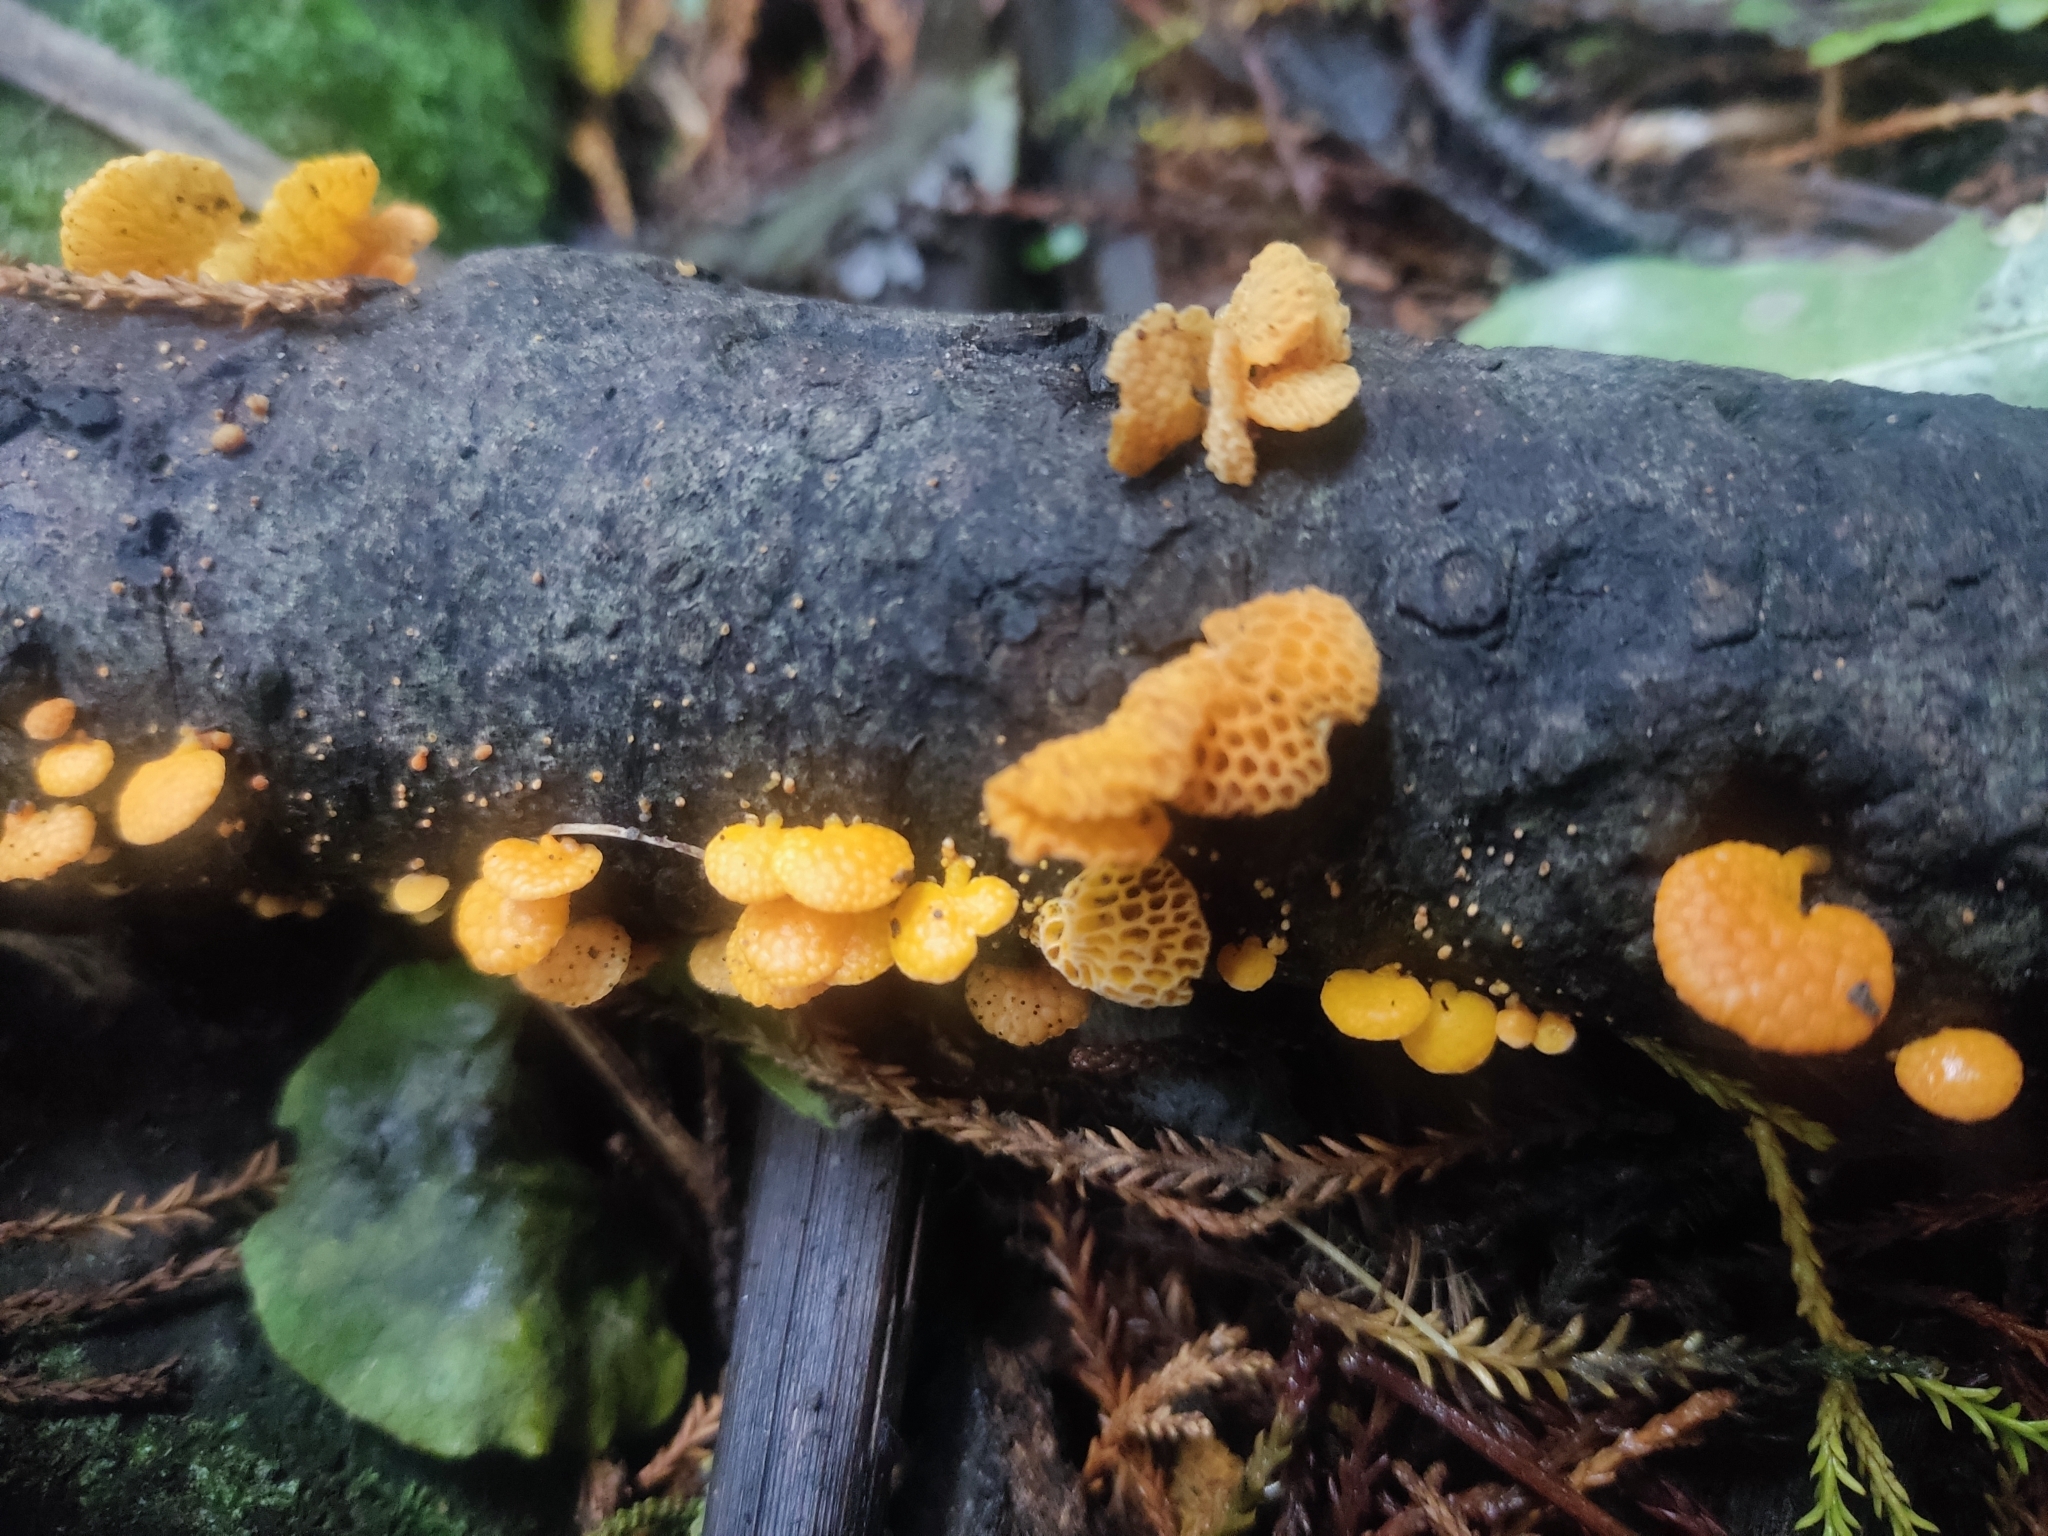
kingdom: Fungi
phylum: Basidiomycota
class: Agaricomycetes
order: Agaricales
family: Mycenaceae
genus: Favolaschia
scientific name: Favolaschia claudopus
